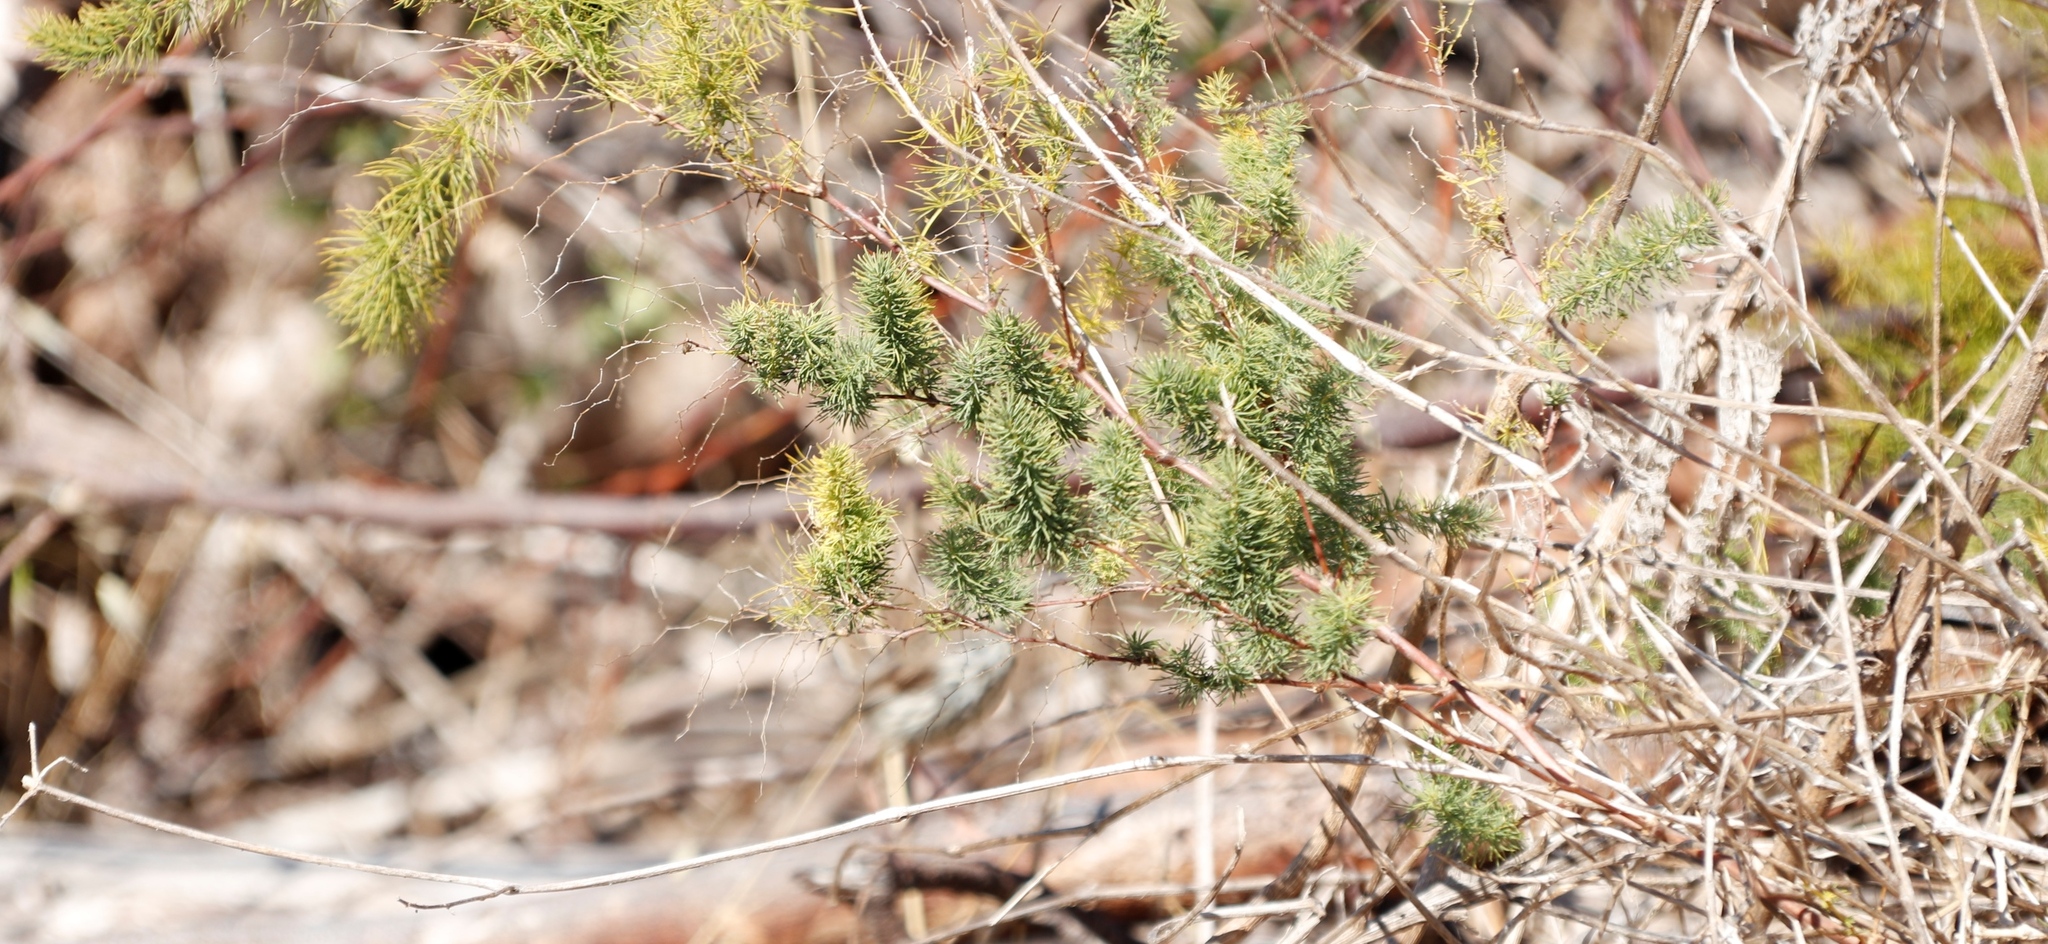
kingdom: Plantae
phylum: Tracheophyta
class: Liliopsida
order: Asparagales
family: Asparagaceae
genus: Asparagus
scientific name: Asparagus rubicundus
